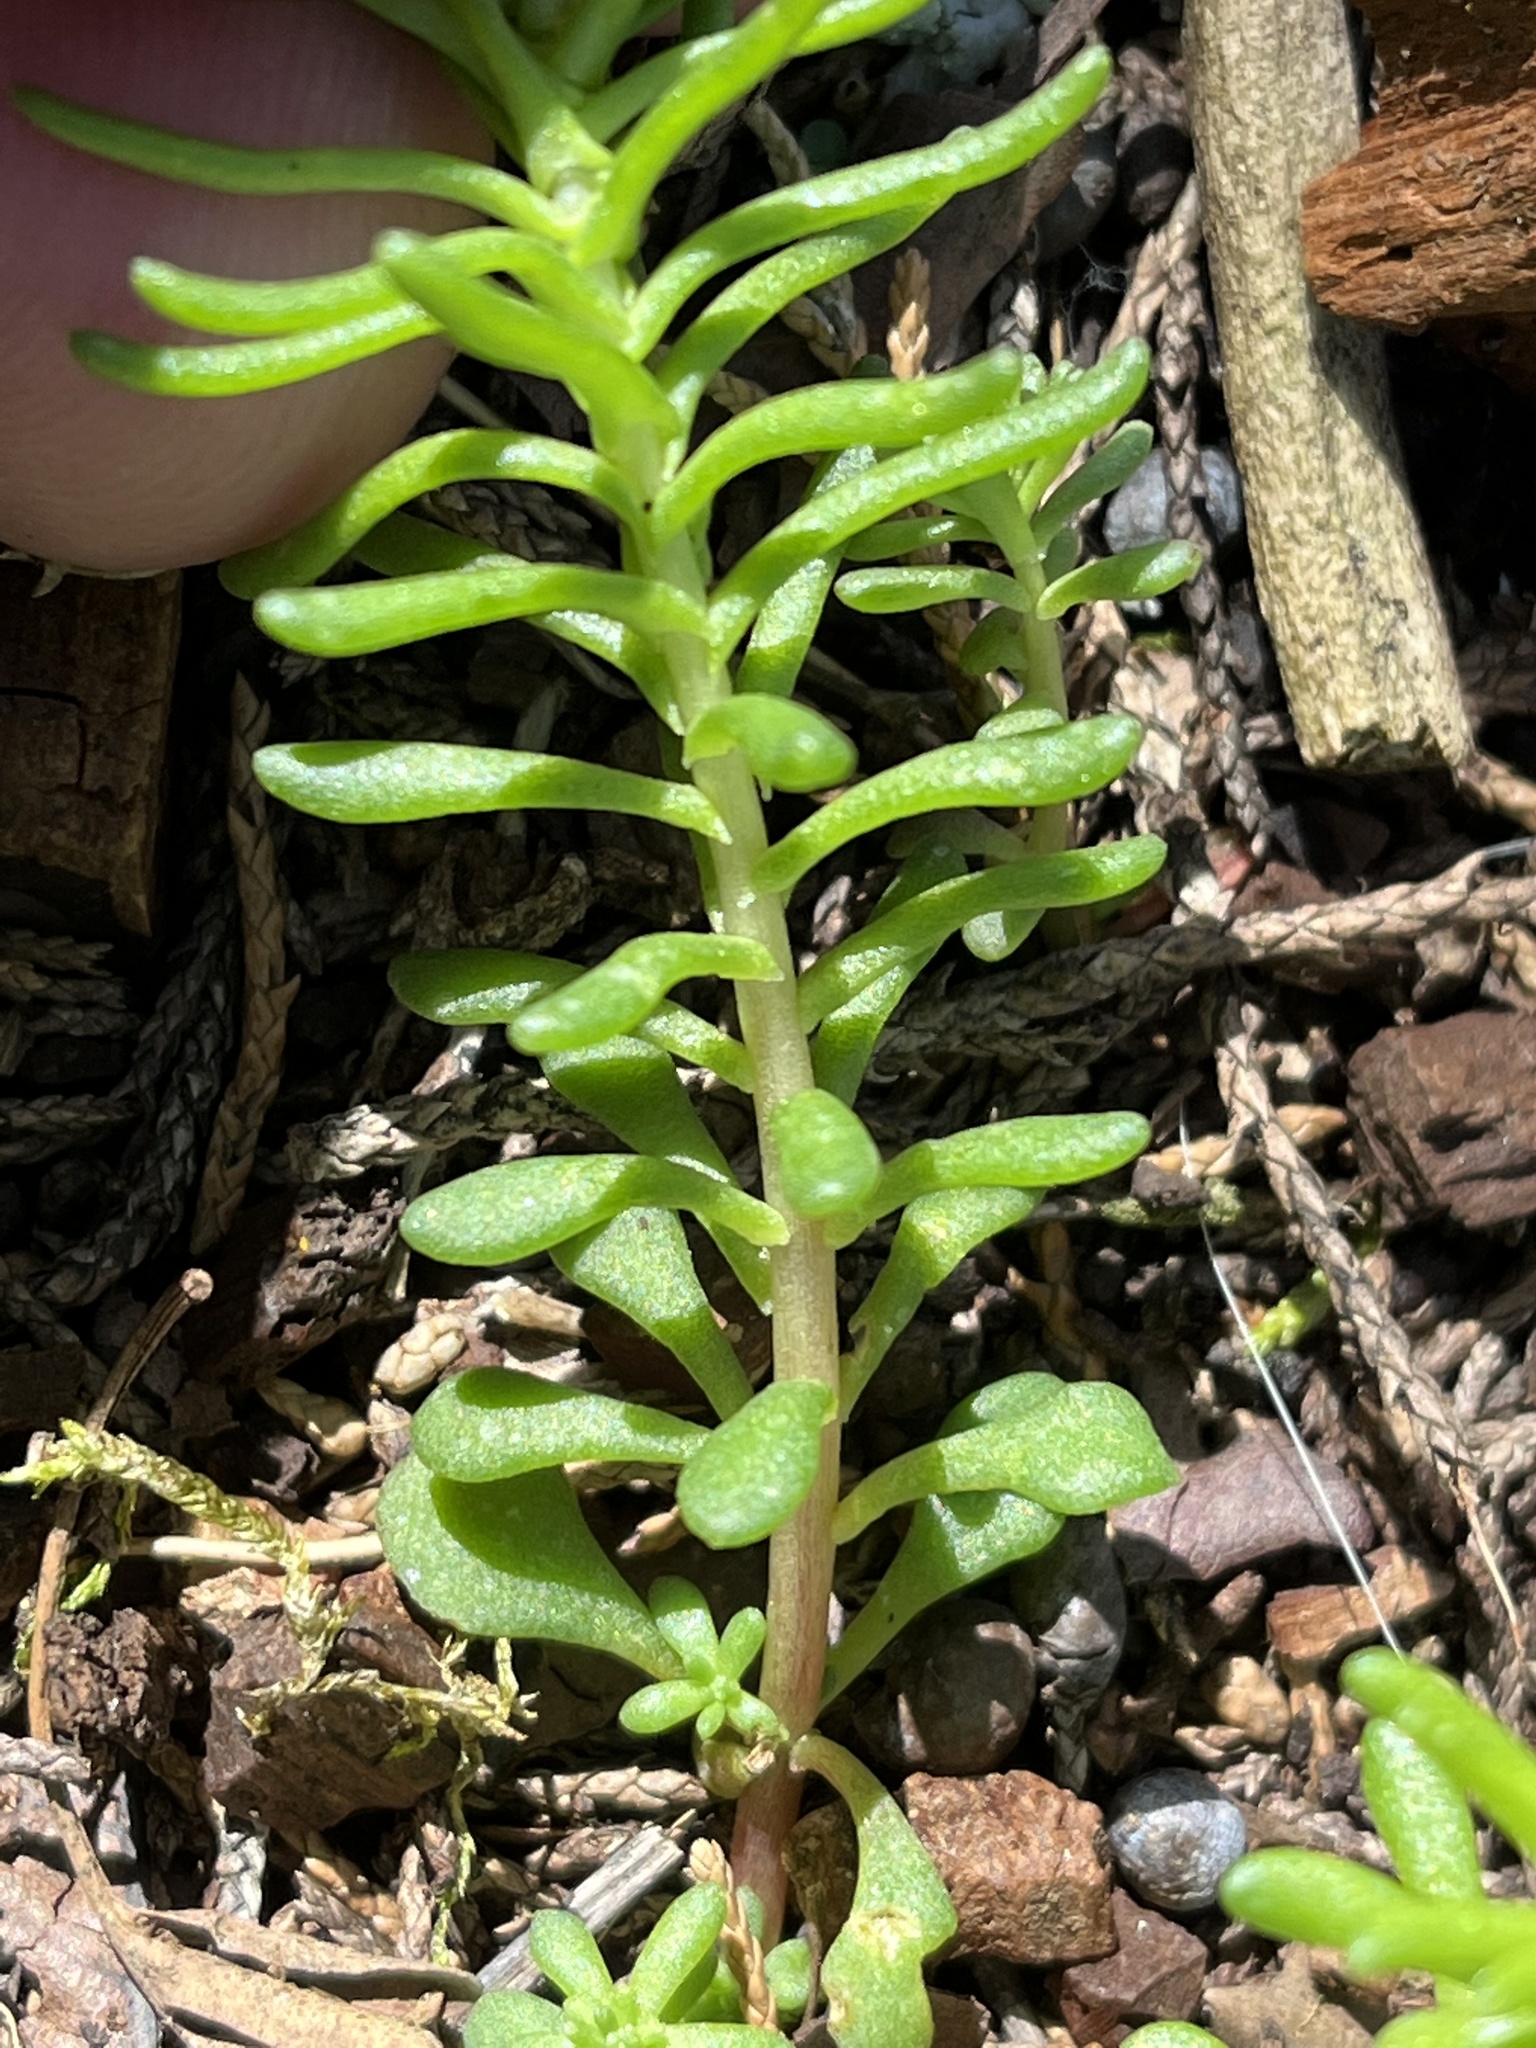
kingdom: Plantae
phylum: Tracheophyta
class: Magnoliopsida
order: Saxifragales
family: Crassulaceae
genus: Sedum
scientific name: Sedum pulchellum
